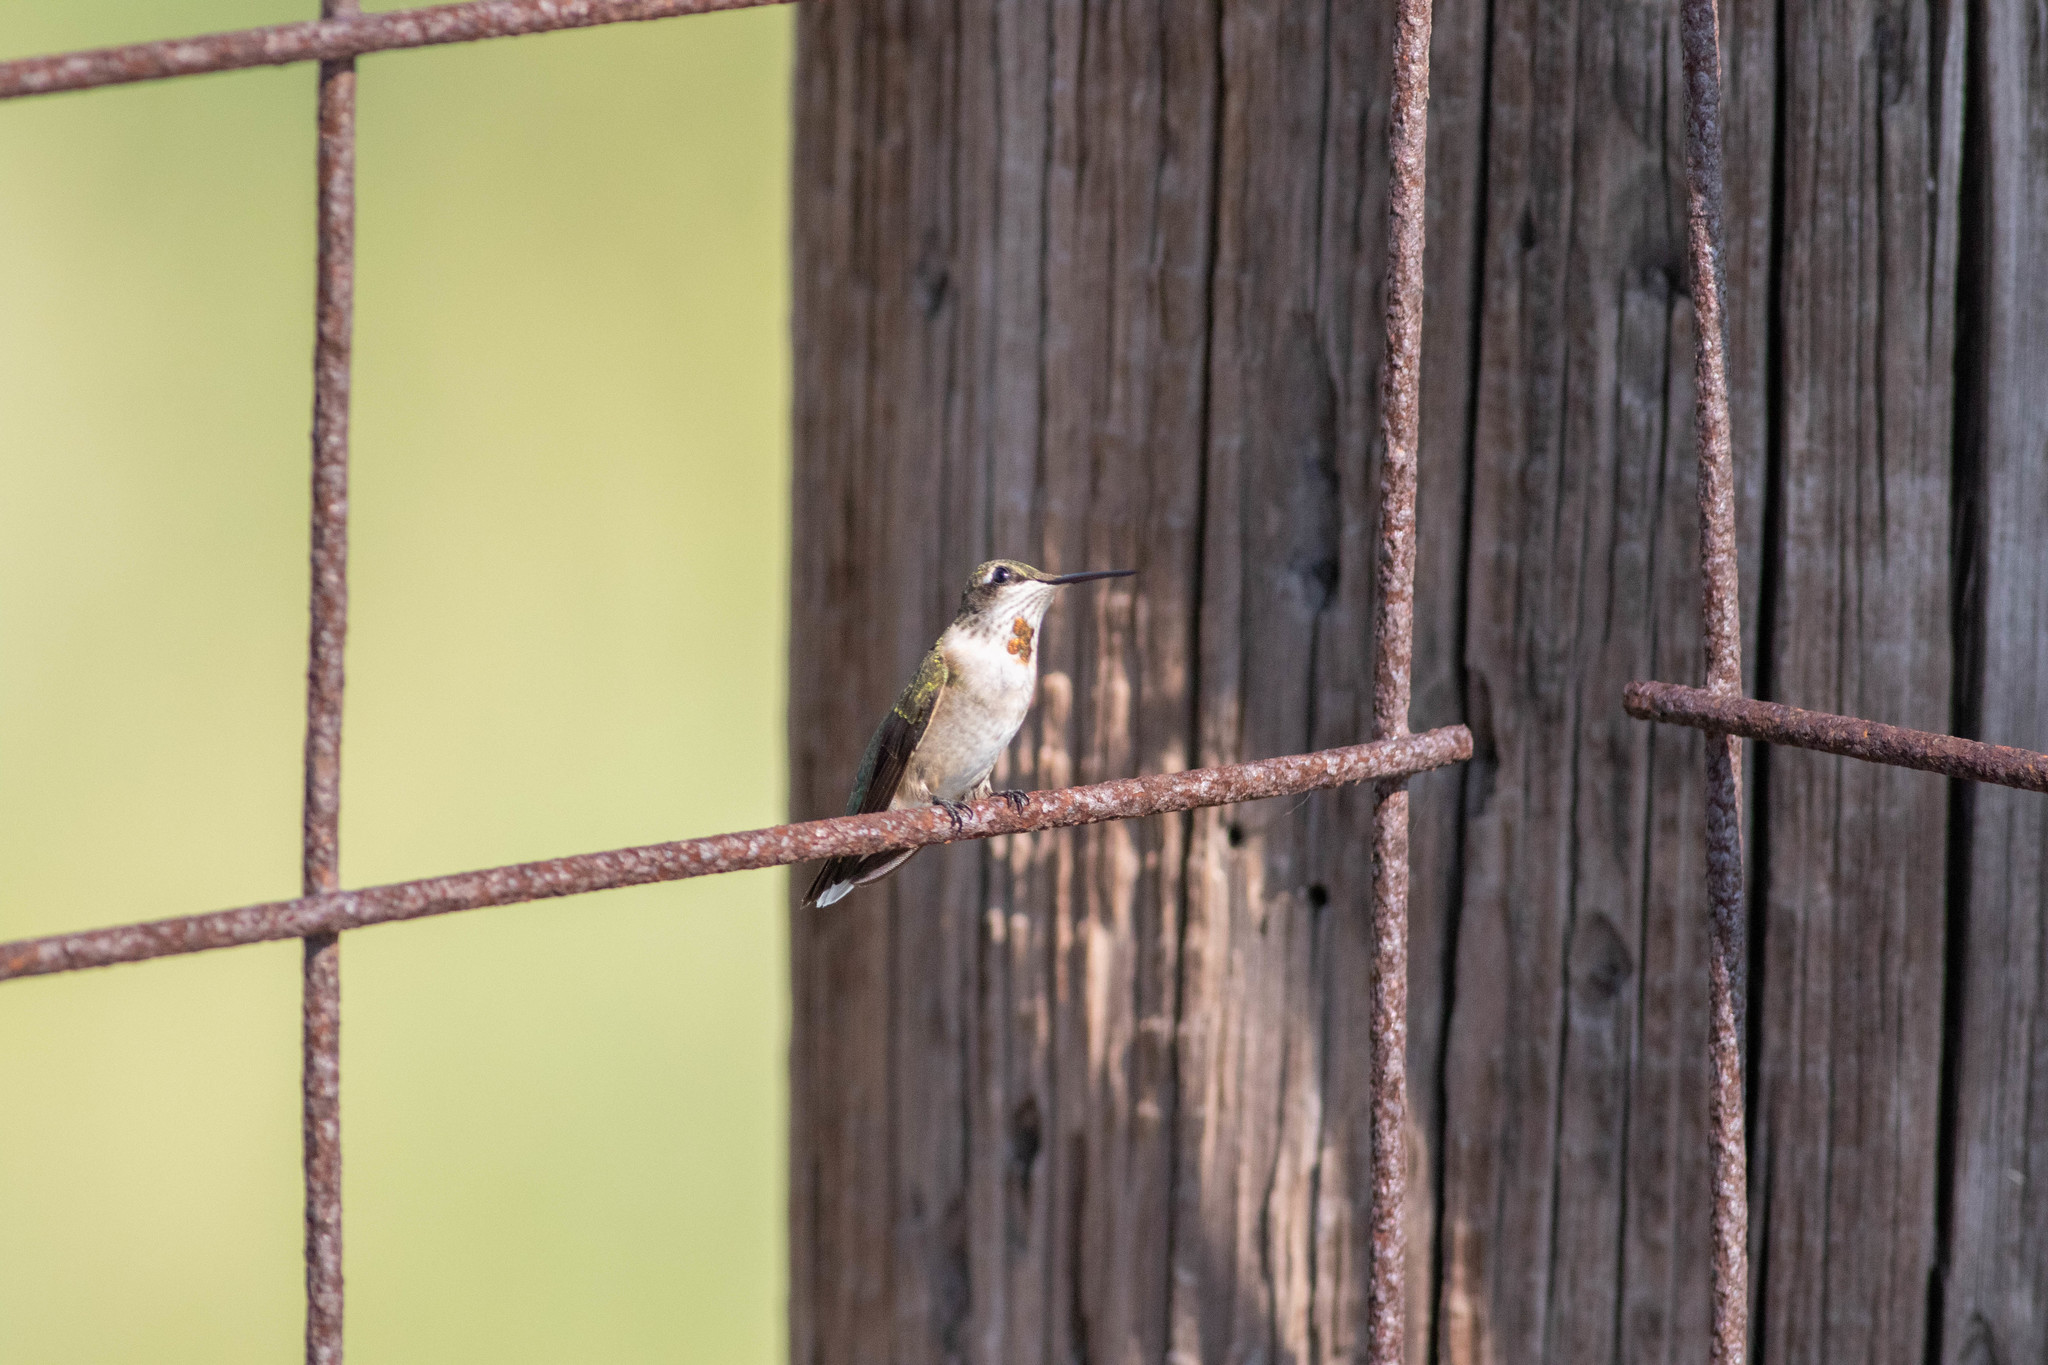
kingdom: Animalia
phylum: Chordata
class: Aves
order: Apodiformes
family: Trochilidae
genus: Archilochus
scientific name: Archilochus colubris
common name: Ruby-throated hummingbird
